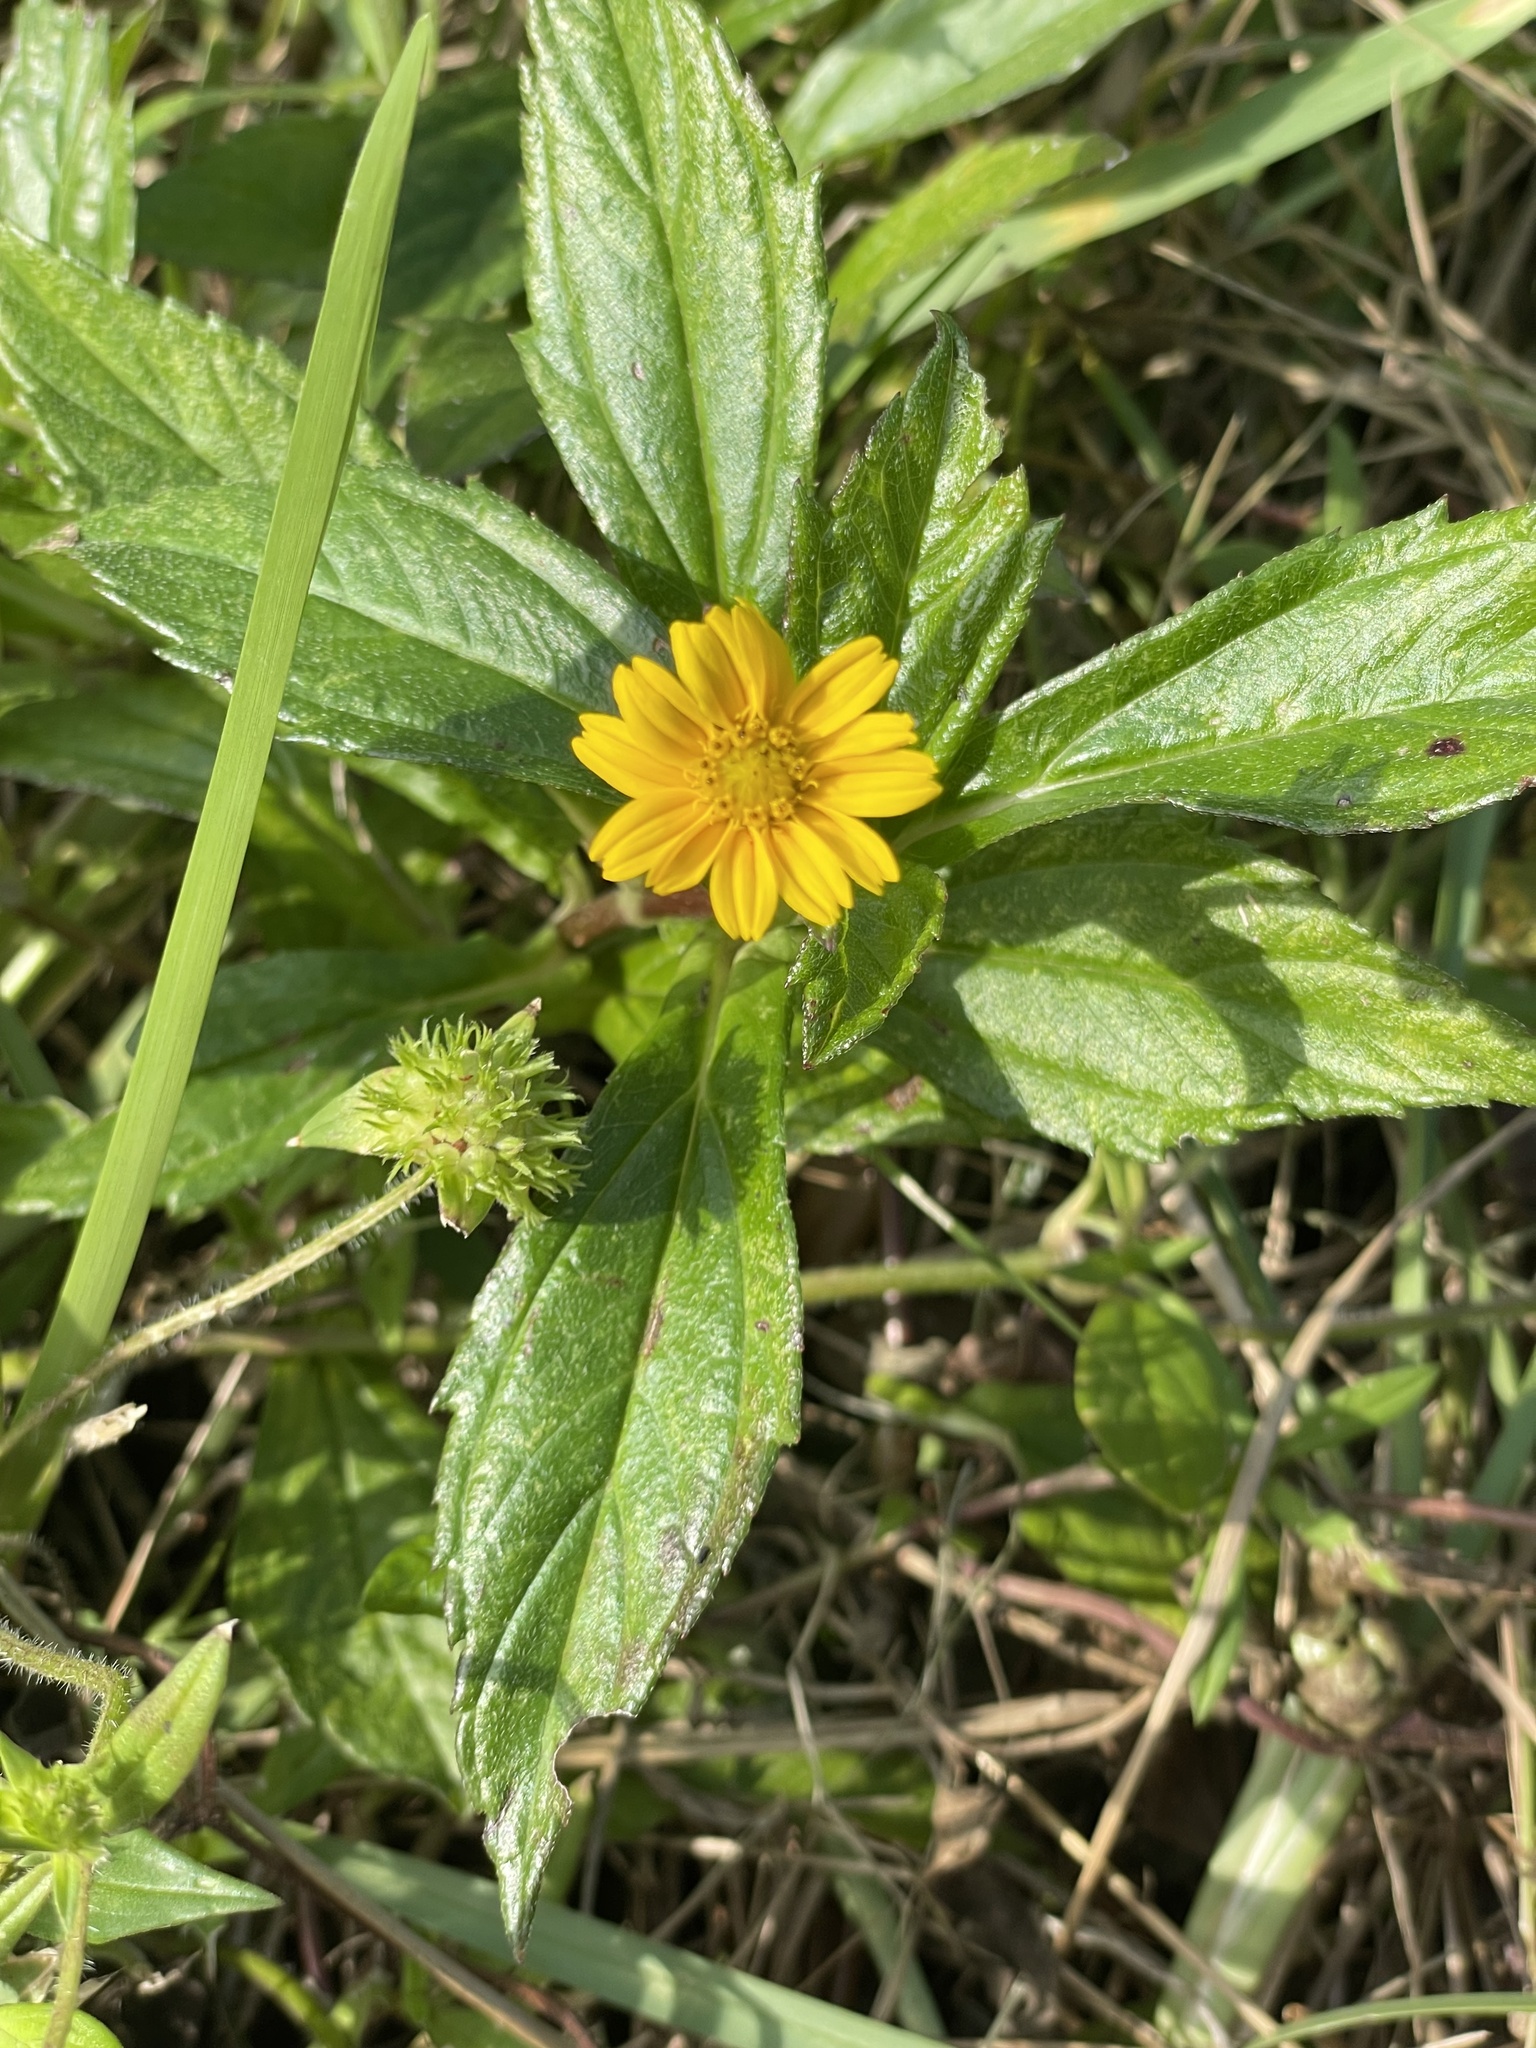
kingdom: Plantae
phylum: Tracheophyta
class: Magnoliopsida
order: Asterales
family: Asteraceae
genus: Sphagneticola
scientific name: Sphagneticola trilobata
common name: Bay biscayne creeping-oxeye
